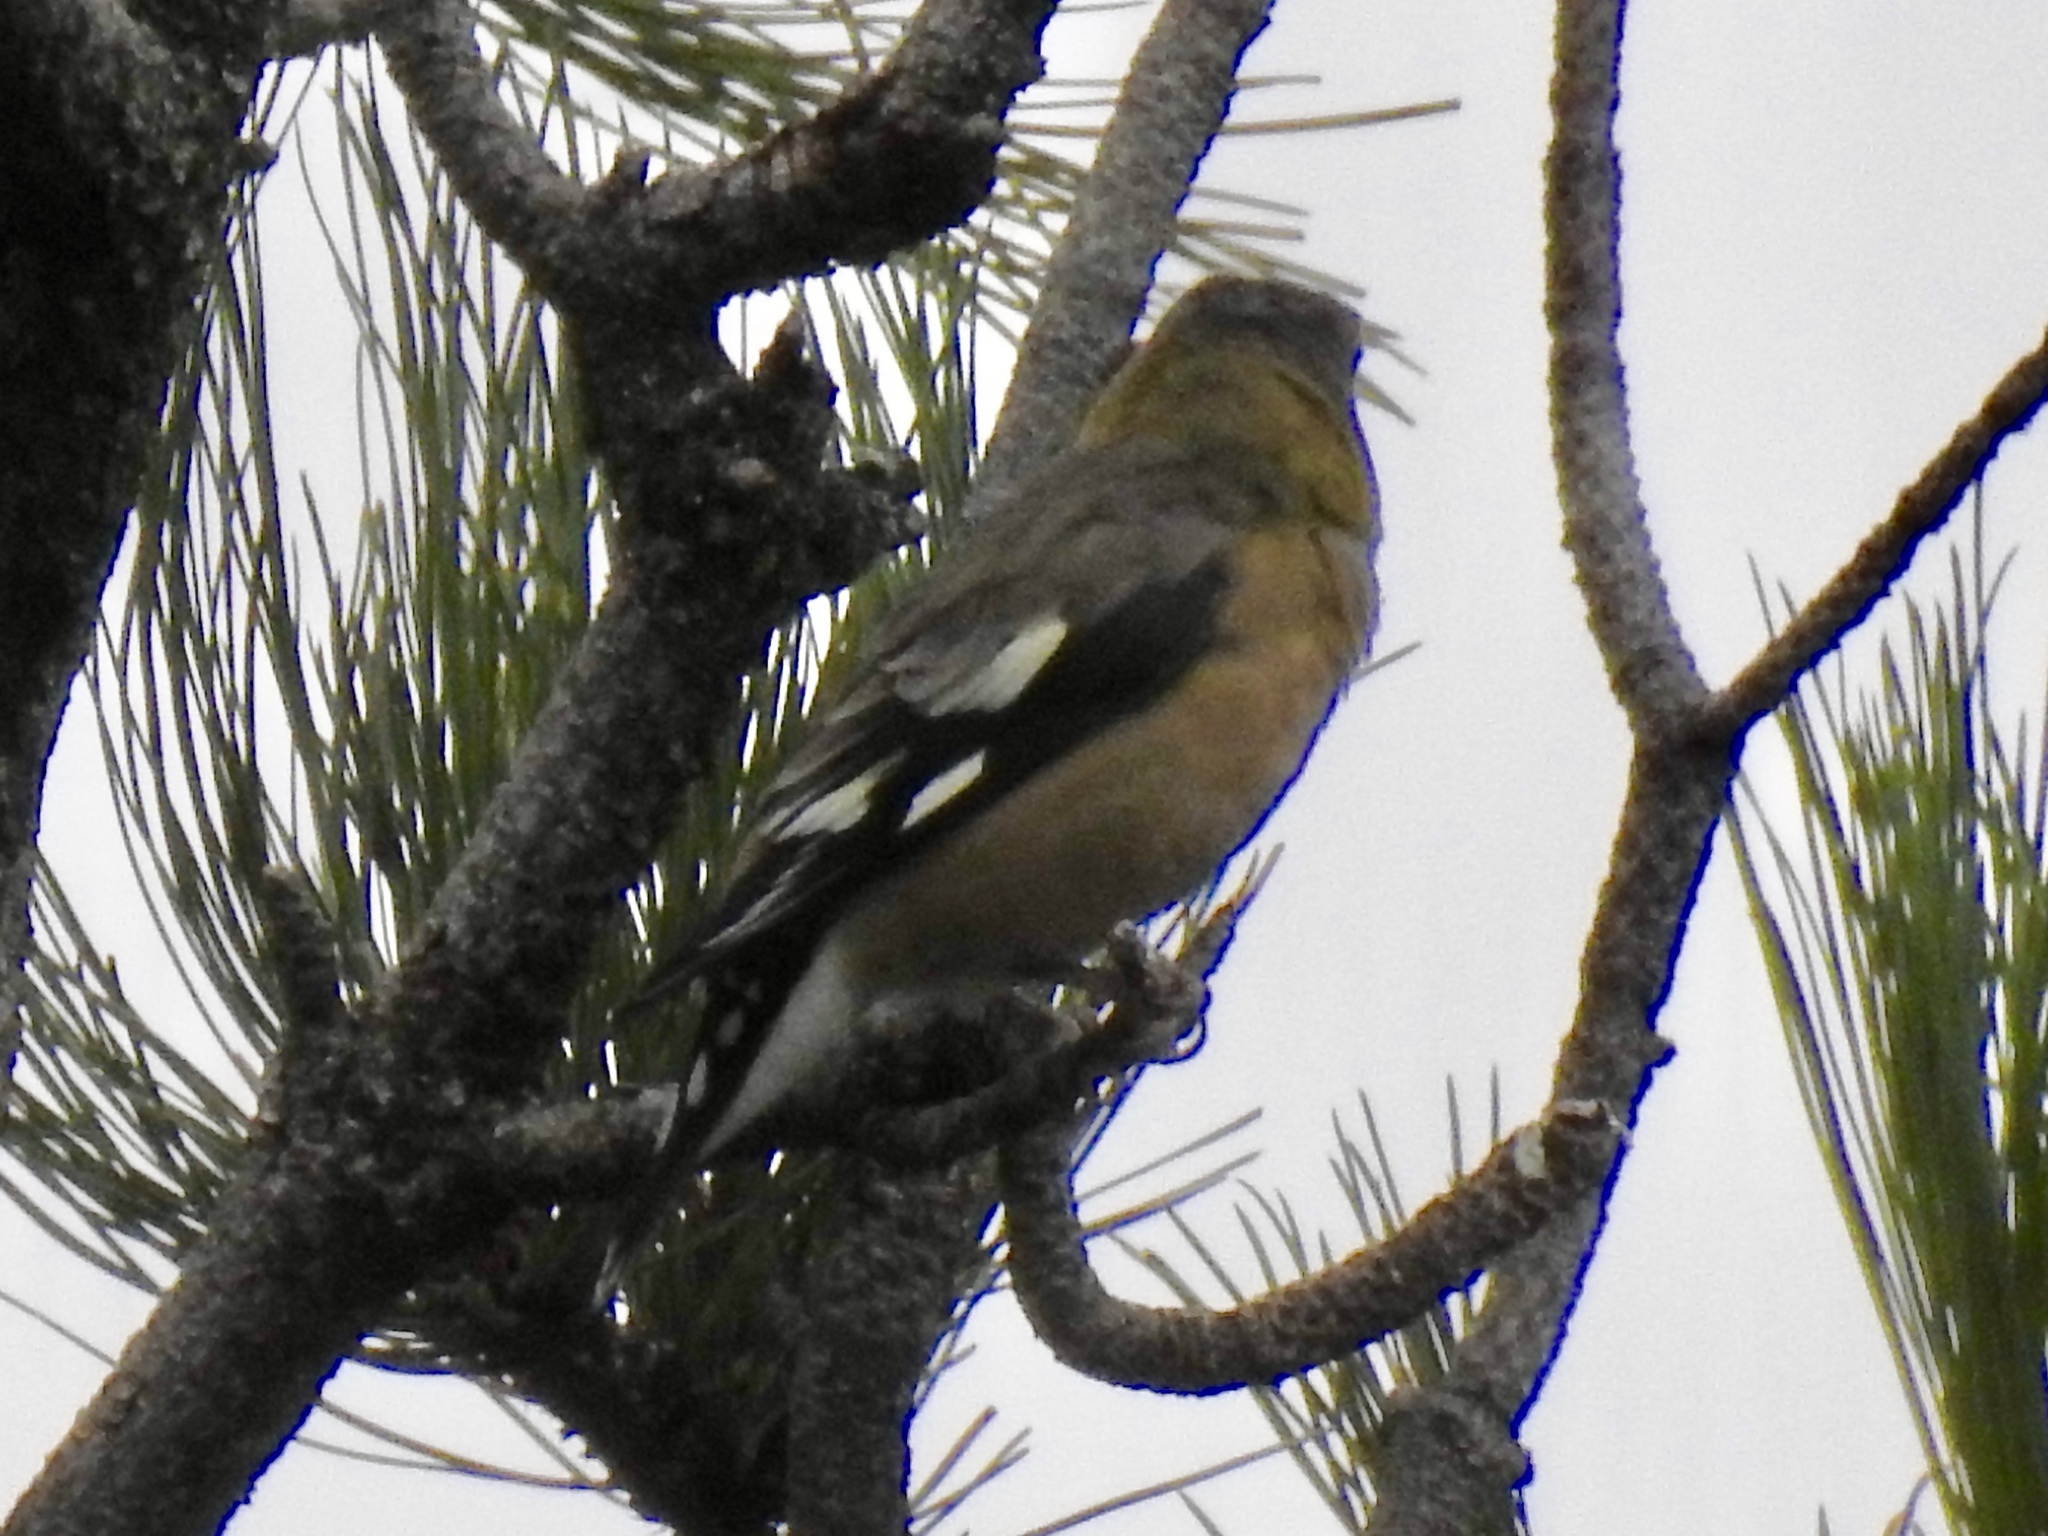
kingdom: Animalia
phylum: Chordata
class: Aves
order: Passeriformes
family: Fringillidae
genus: Hesperiphona
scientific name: Hesperiphona vespertina
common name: Evening grosbeak
